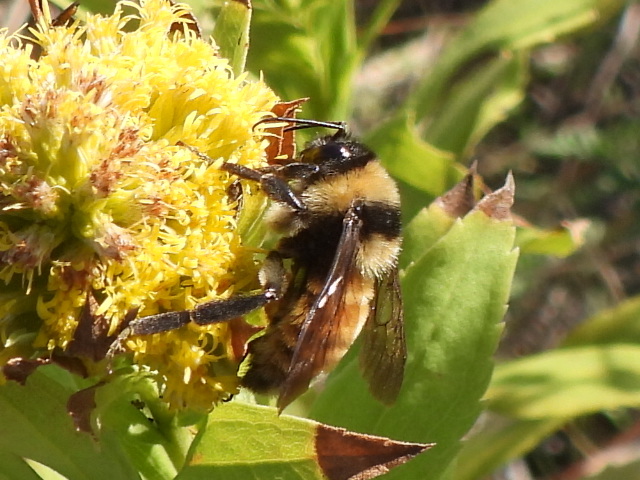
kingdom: Animalia
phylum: Arthropoda
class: Insecta
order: Hymenoptera
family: Apidae
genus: Bombus
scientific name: Bombus pensylvanicus
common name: Bumble bee
